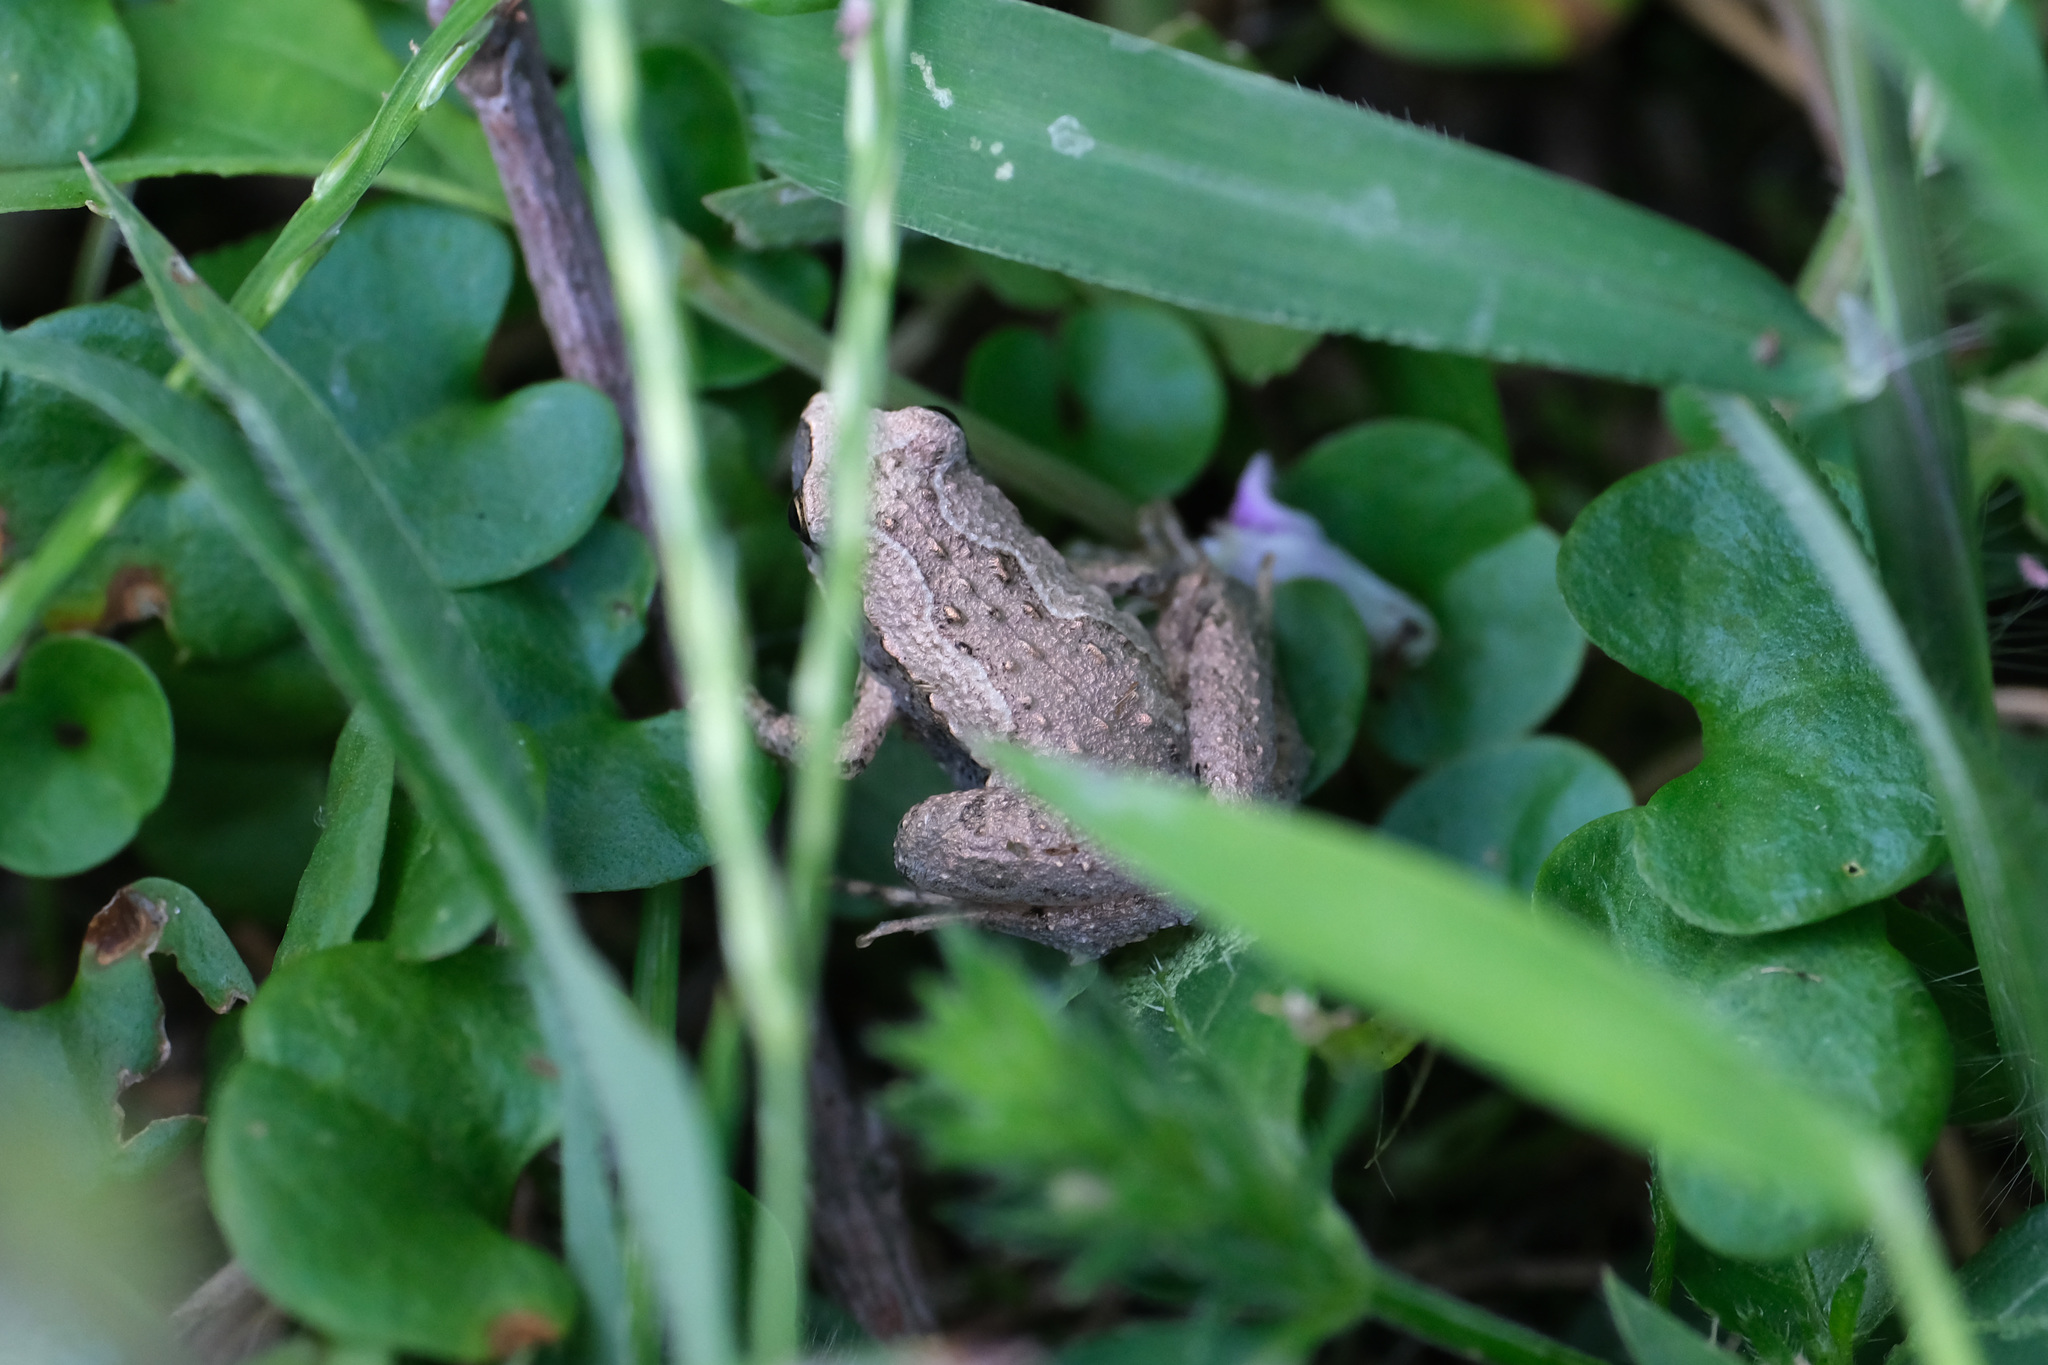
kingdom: Animalia
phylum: Chordata
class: Amphibia
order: Anura
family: Microhylidae
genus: Microhyla
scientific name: Microhyla fissipes
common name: Ornate narrow-mouthed frog
